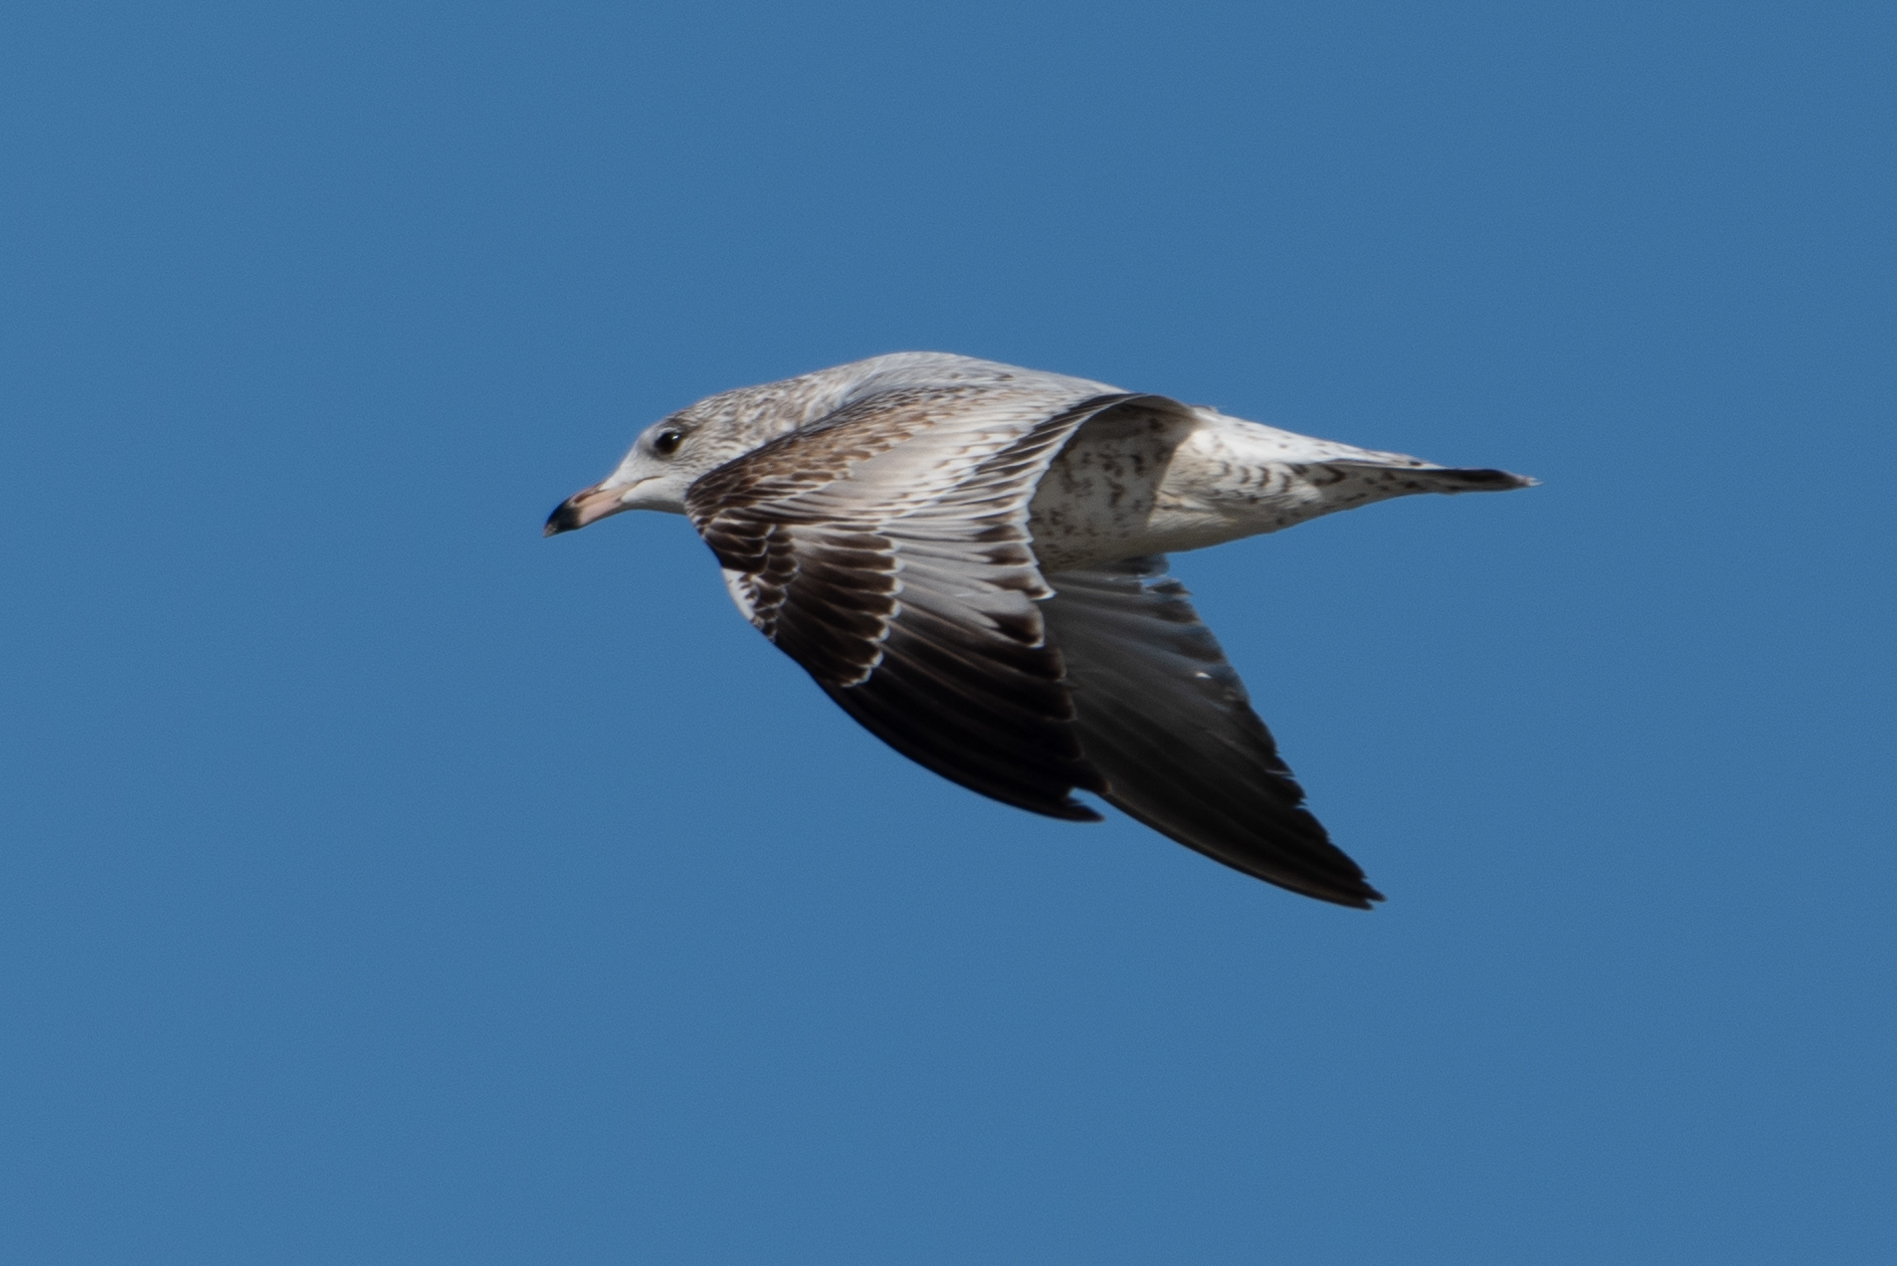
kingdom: Animalia
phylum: Chordata
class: Aves
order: Charadriiformes
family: Laridae
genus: Larus
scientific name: Larus delawarensis
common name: Ring-billed gull
